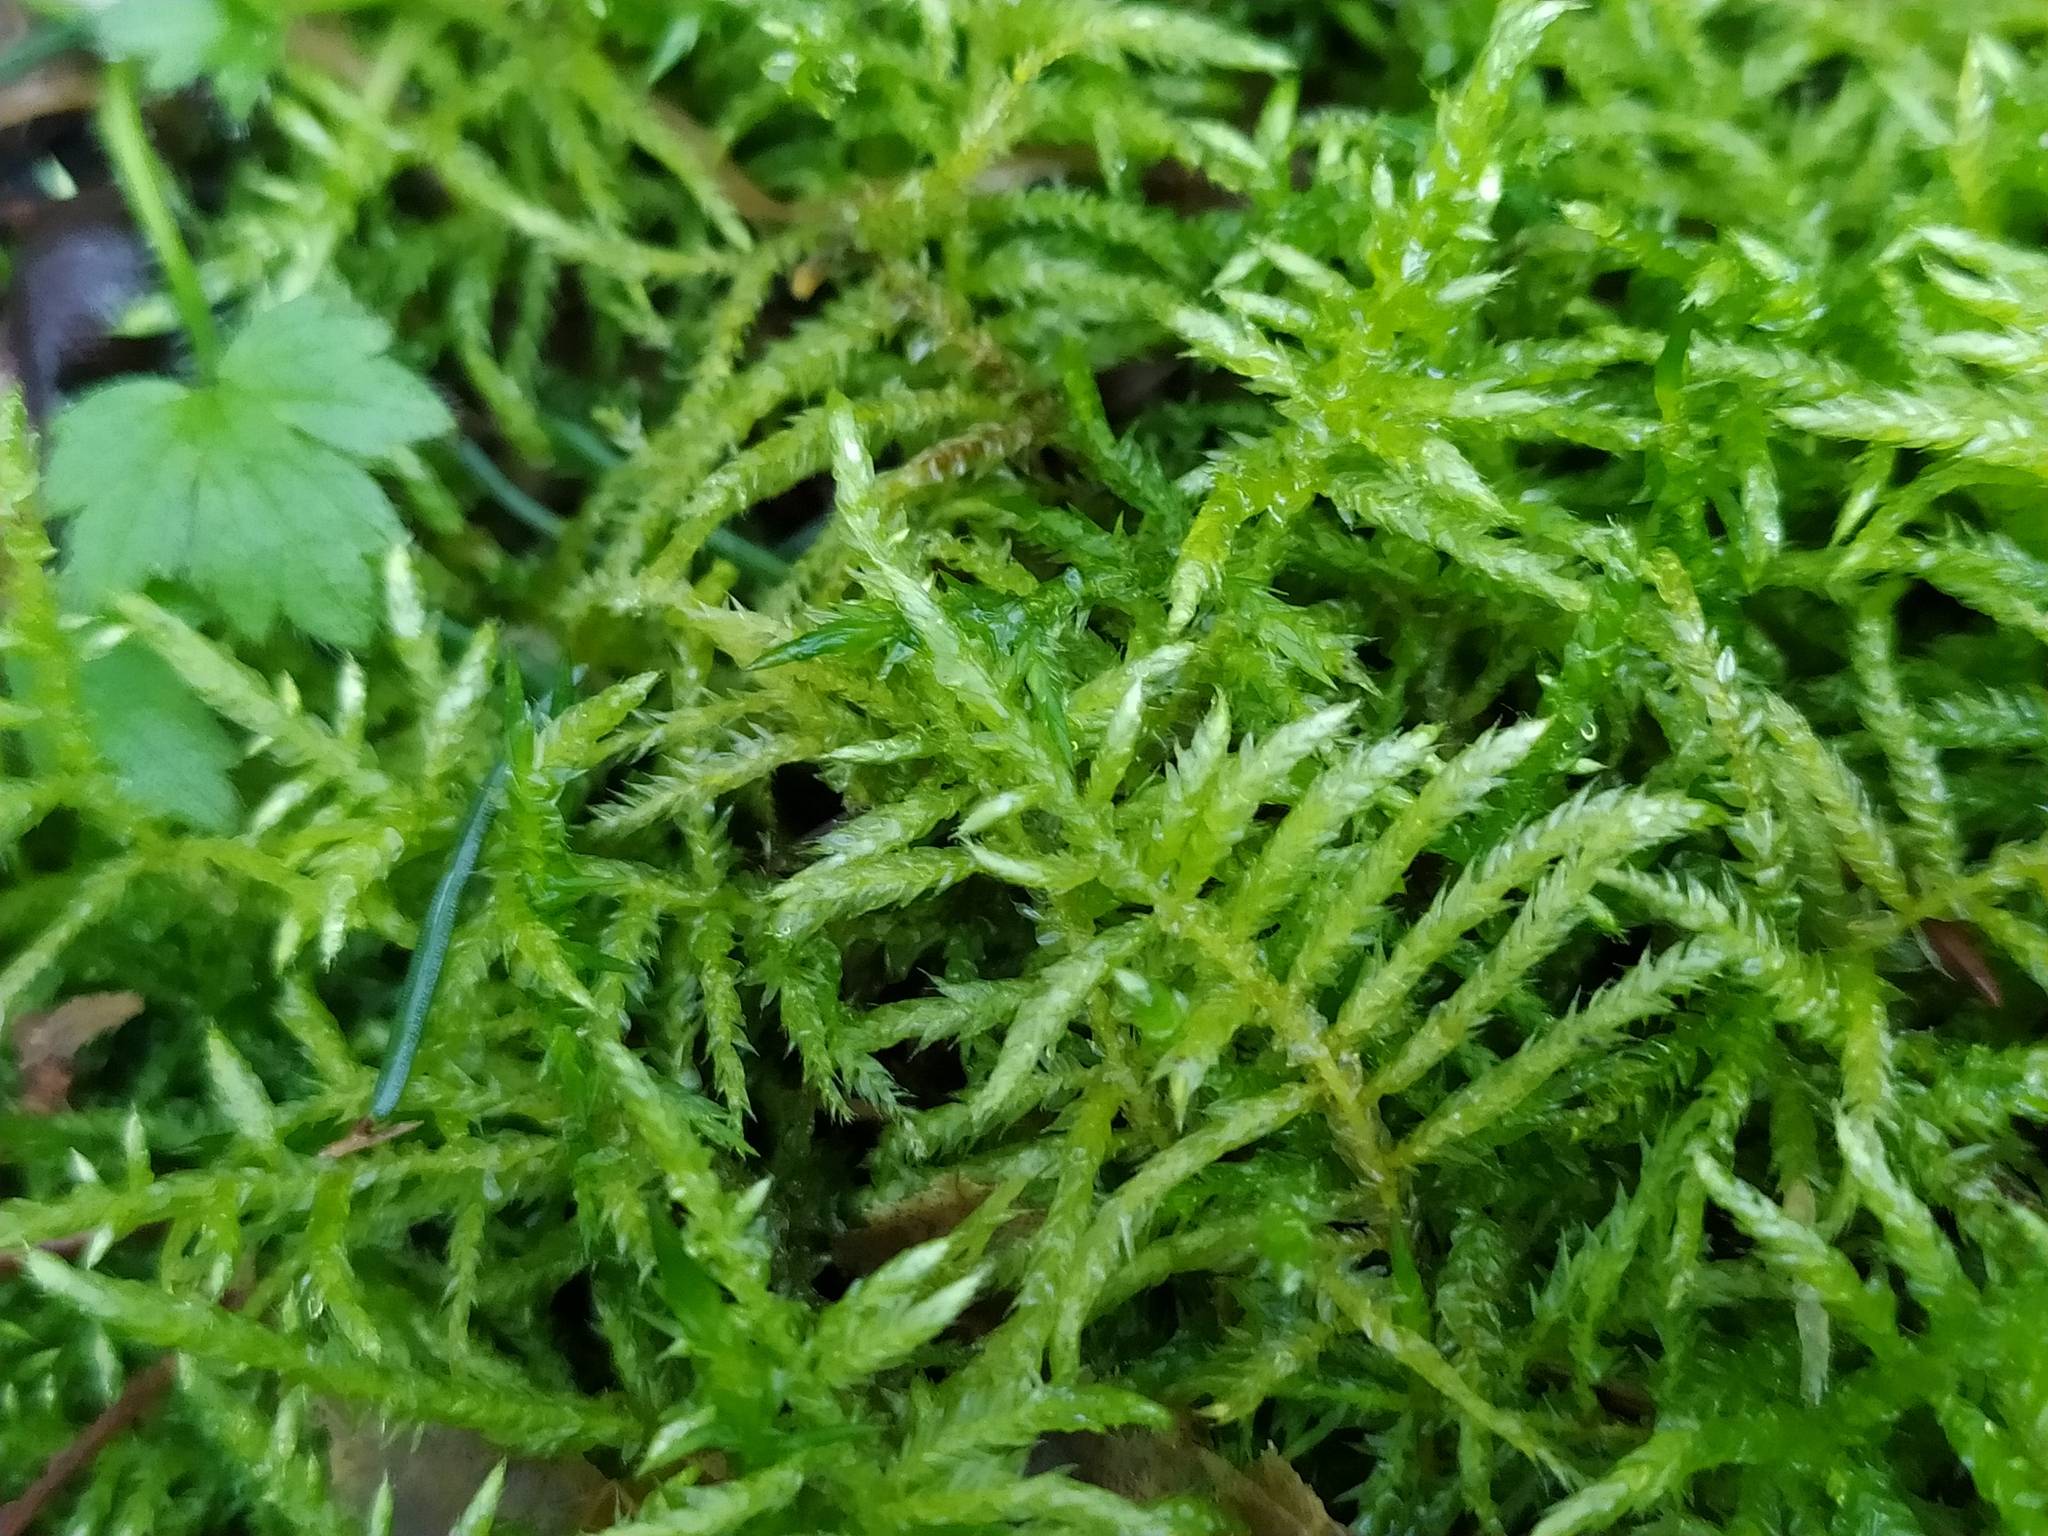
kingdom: Plantae
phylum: Bryophyta
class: Bryopsida
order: Hypnales
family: Brachytheciaceae
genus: Cirriphyllum
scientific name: Cirriphyllum piliferum
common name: Hair-pointed moss
